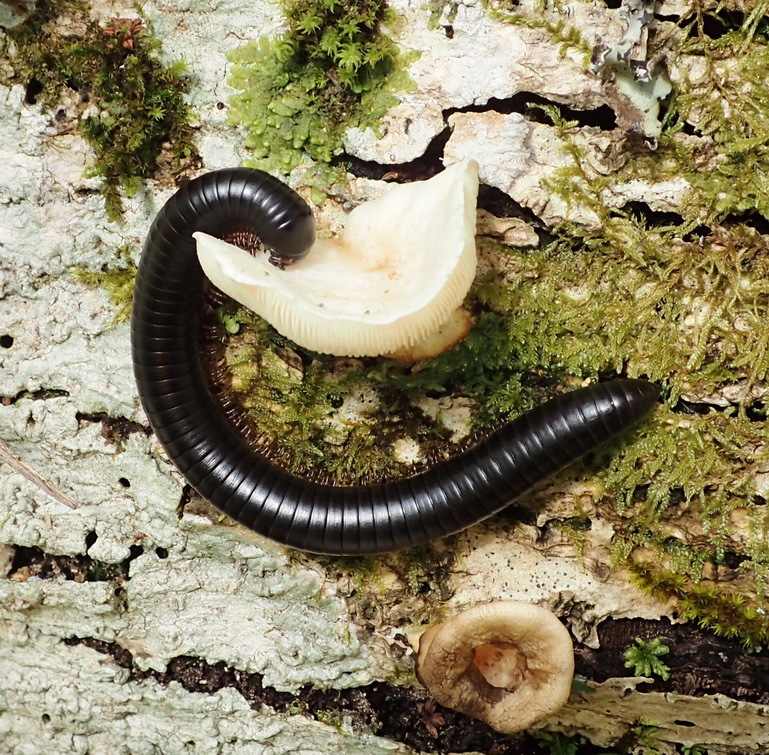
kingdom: Animalia
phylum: Arthropoda
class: Diplopoda
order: Spirostreptida
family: Spirostreptidae
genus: Doratogonus
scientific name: Doratogonus annulipes
